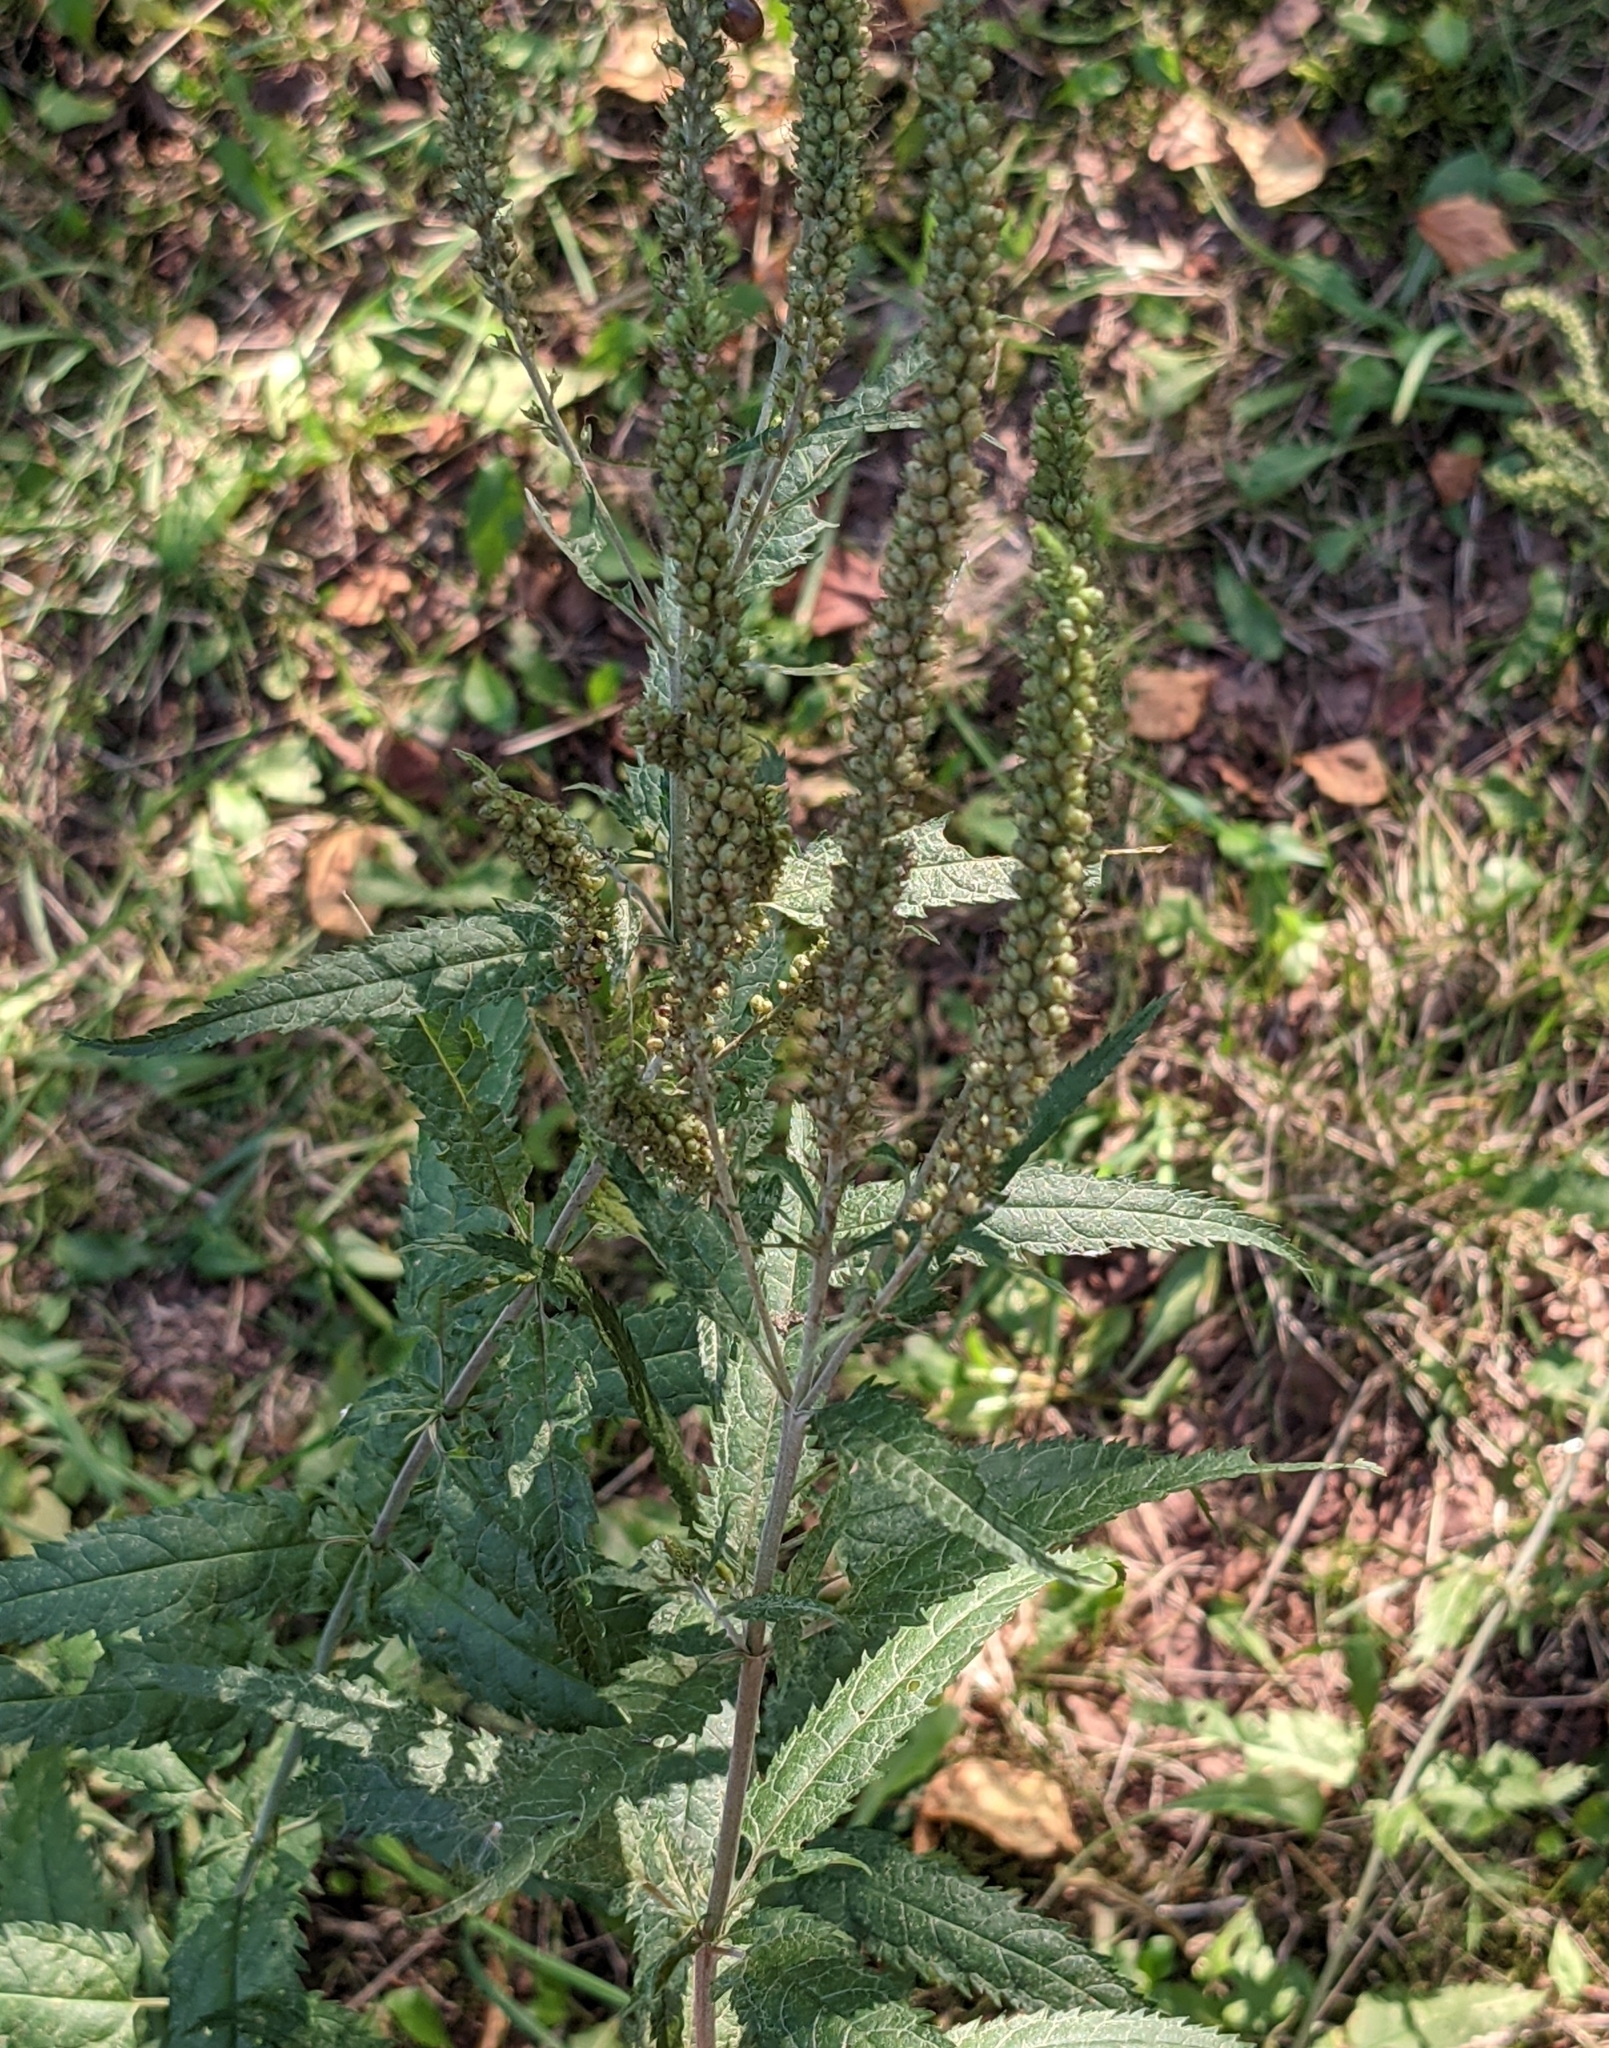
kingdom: Plantae
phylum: Tracheophyta
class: Magnoliopsida
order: Lamiales
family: Plantaginaceae
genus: Veronica
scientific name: Veronica longifolia
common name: Garden speedwell
